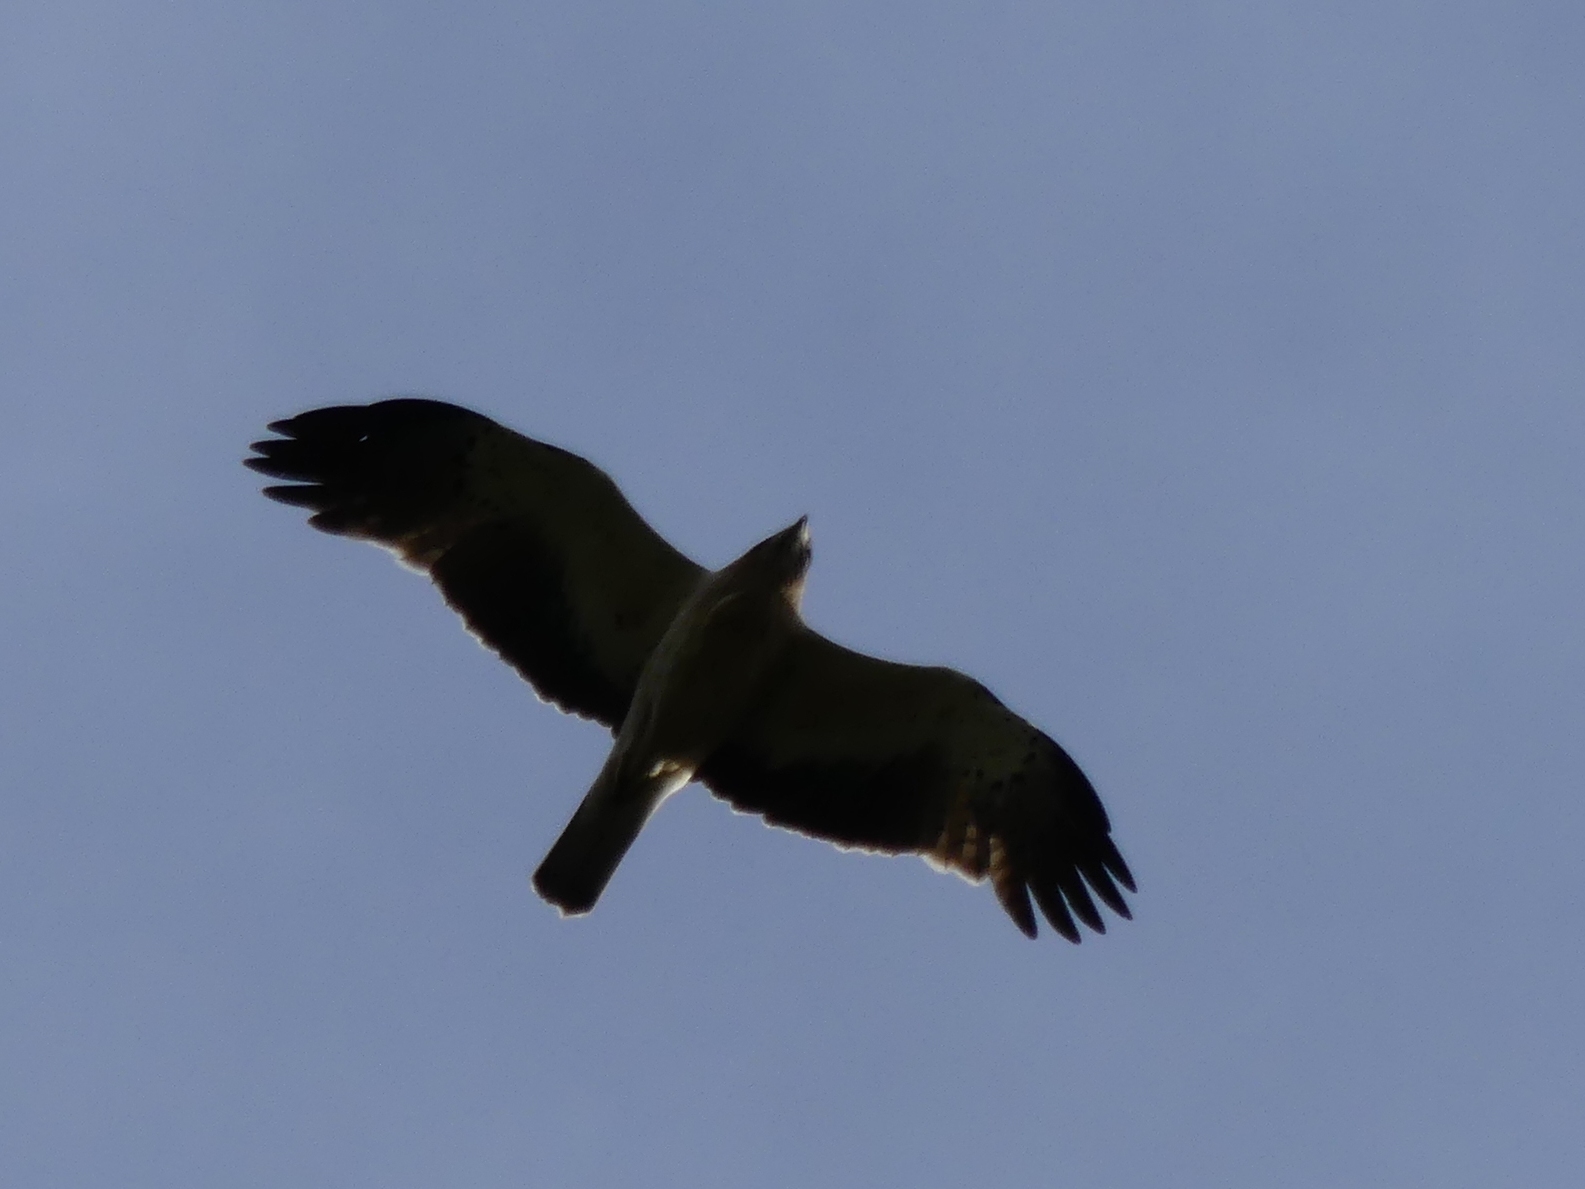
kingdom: Animalia
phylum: Chordata
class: Aves
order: Accipitriformes
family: Accipitridae
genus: Hieraaetus
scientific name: Hieraaetus pennatus
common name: Booted eagle
